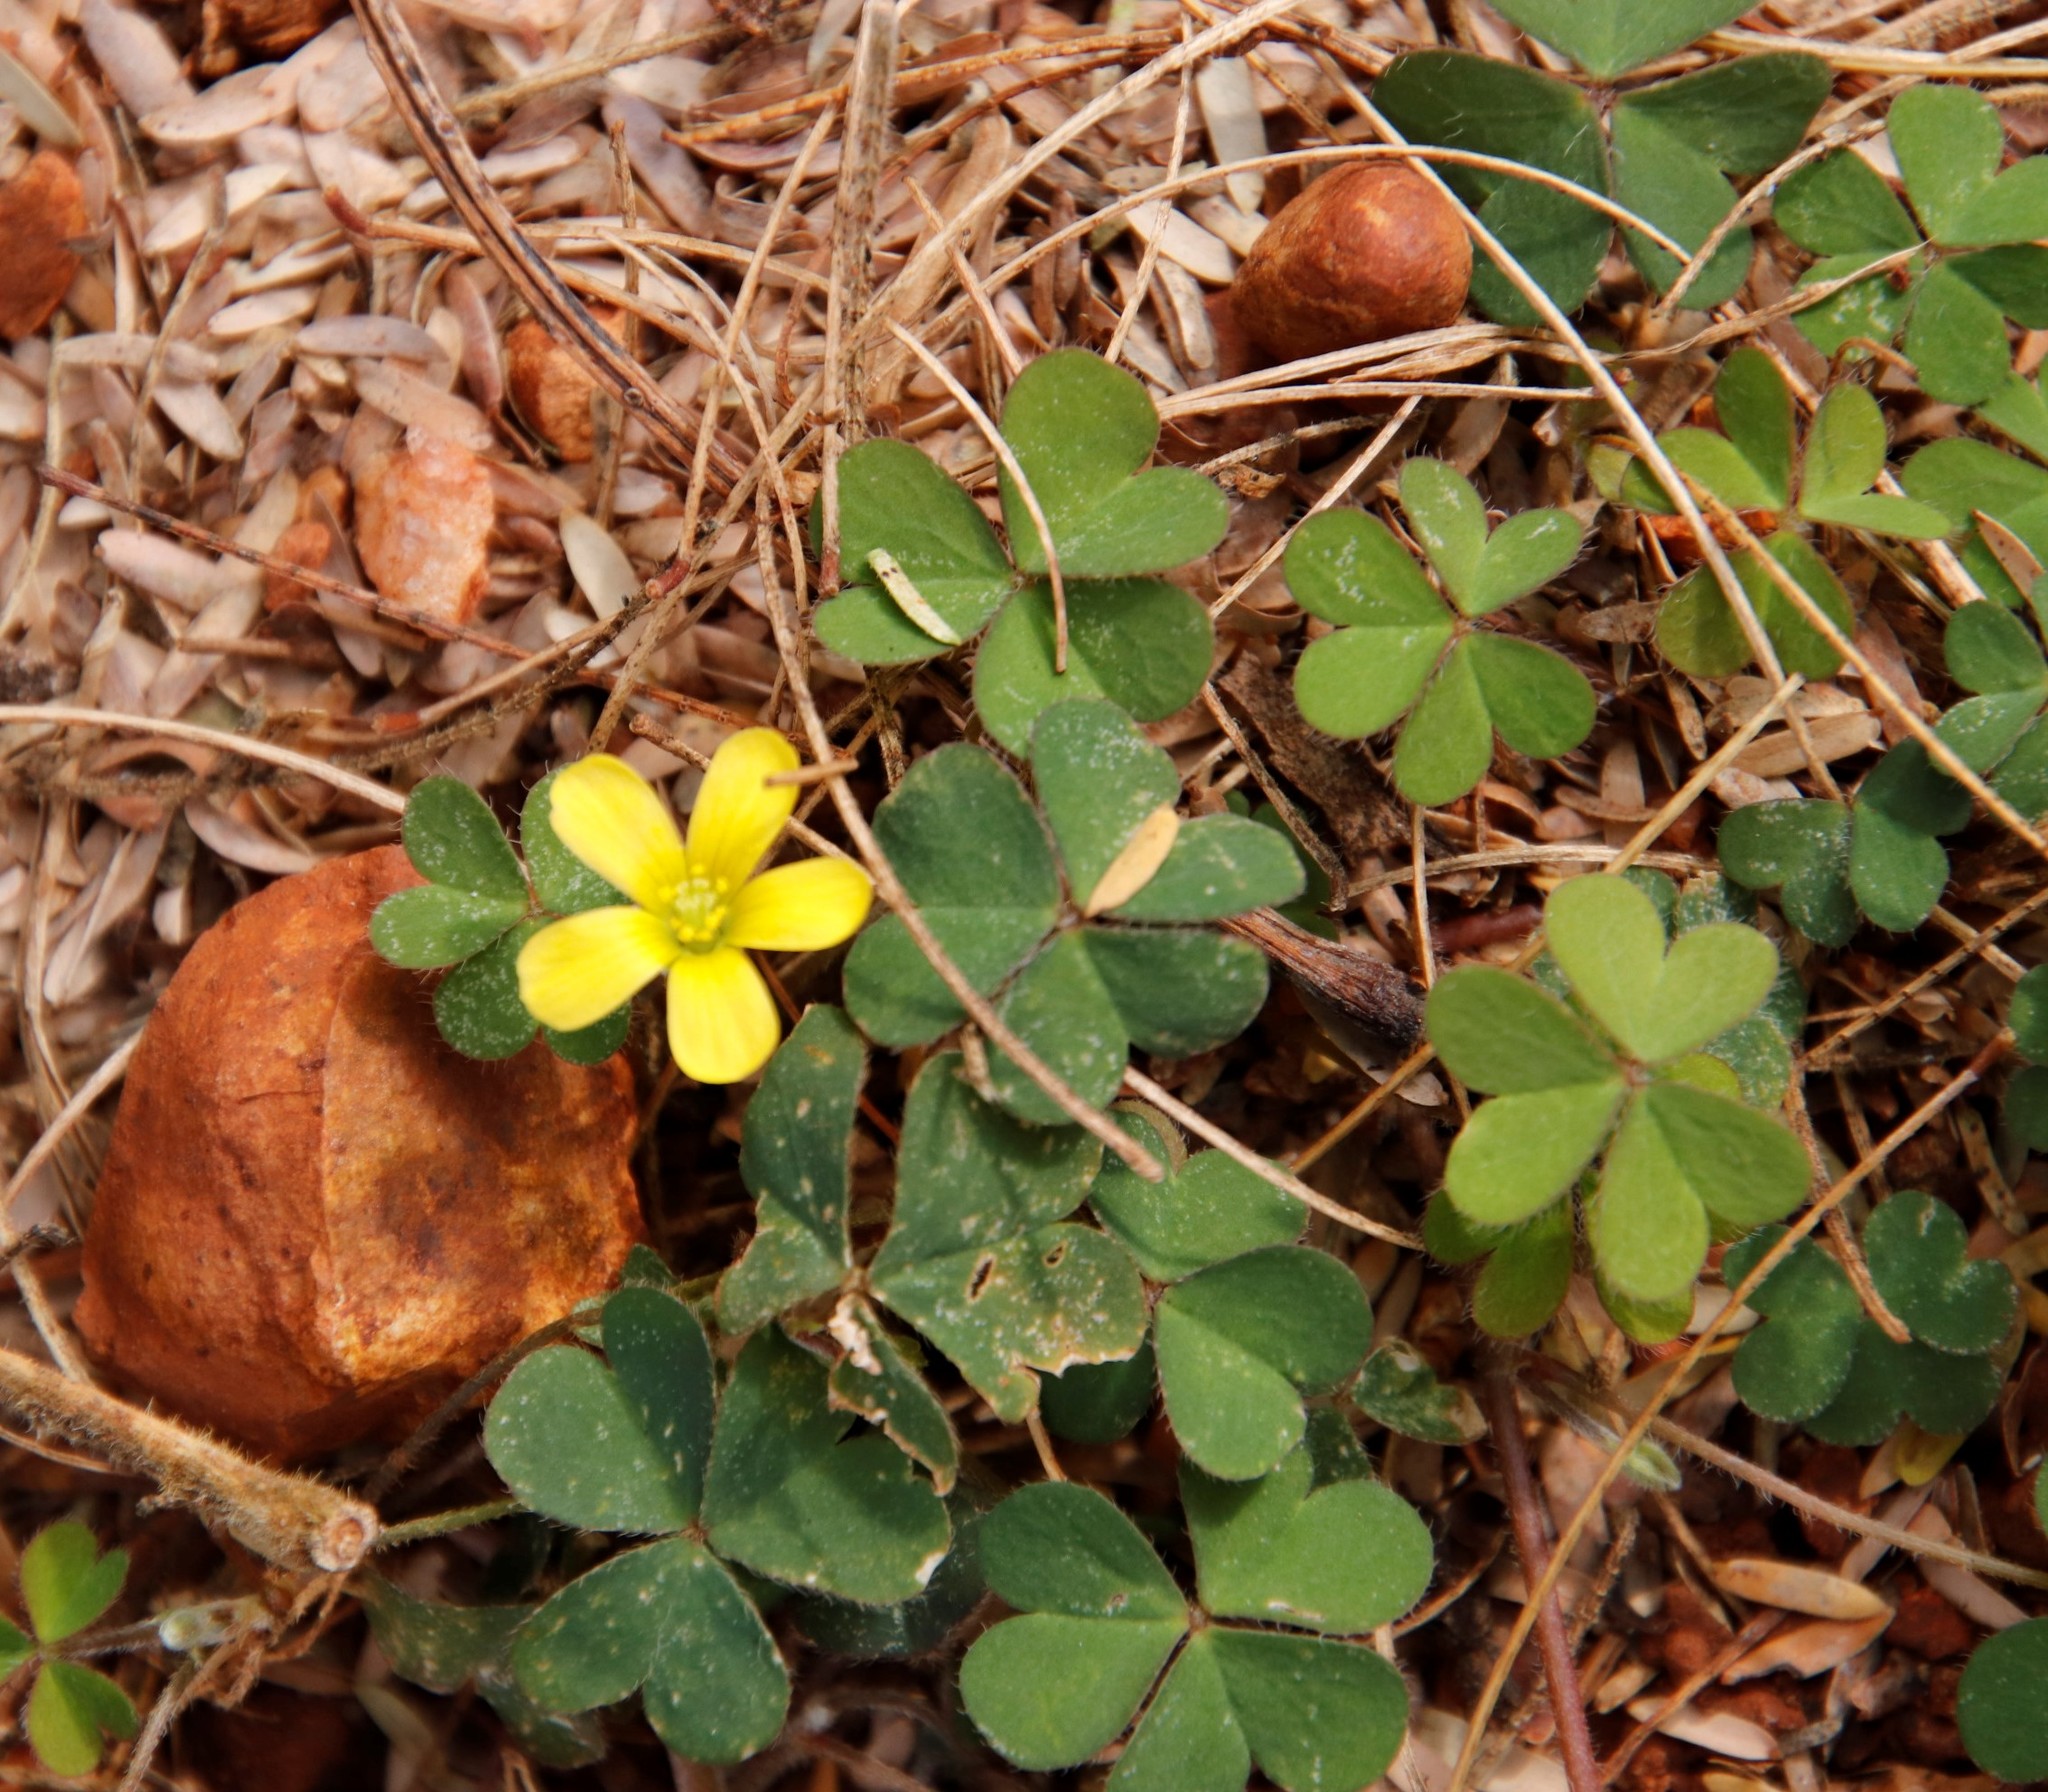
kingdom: Plantae
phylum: Tracheophyta
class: Magnoliopsida
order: Oxalidales
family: Oxalidaceae
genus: Oxalis
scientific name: Oxalis corniculata
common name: Procumbent yellow-sorrel
